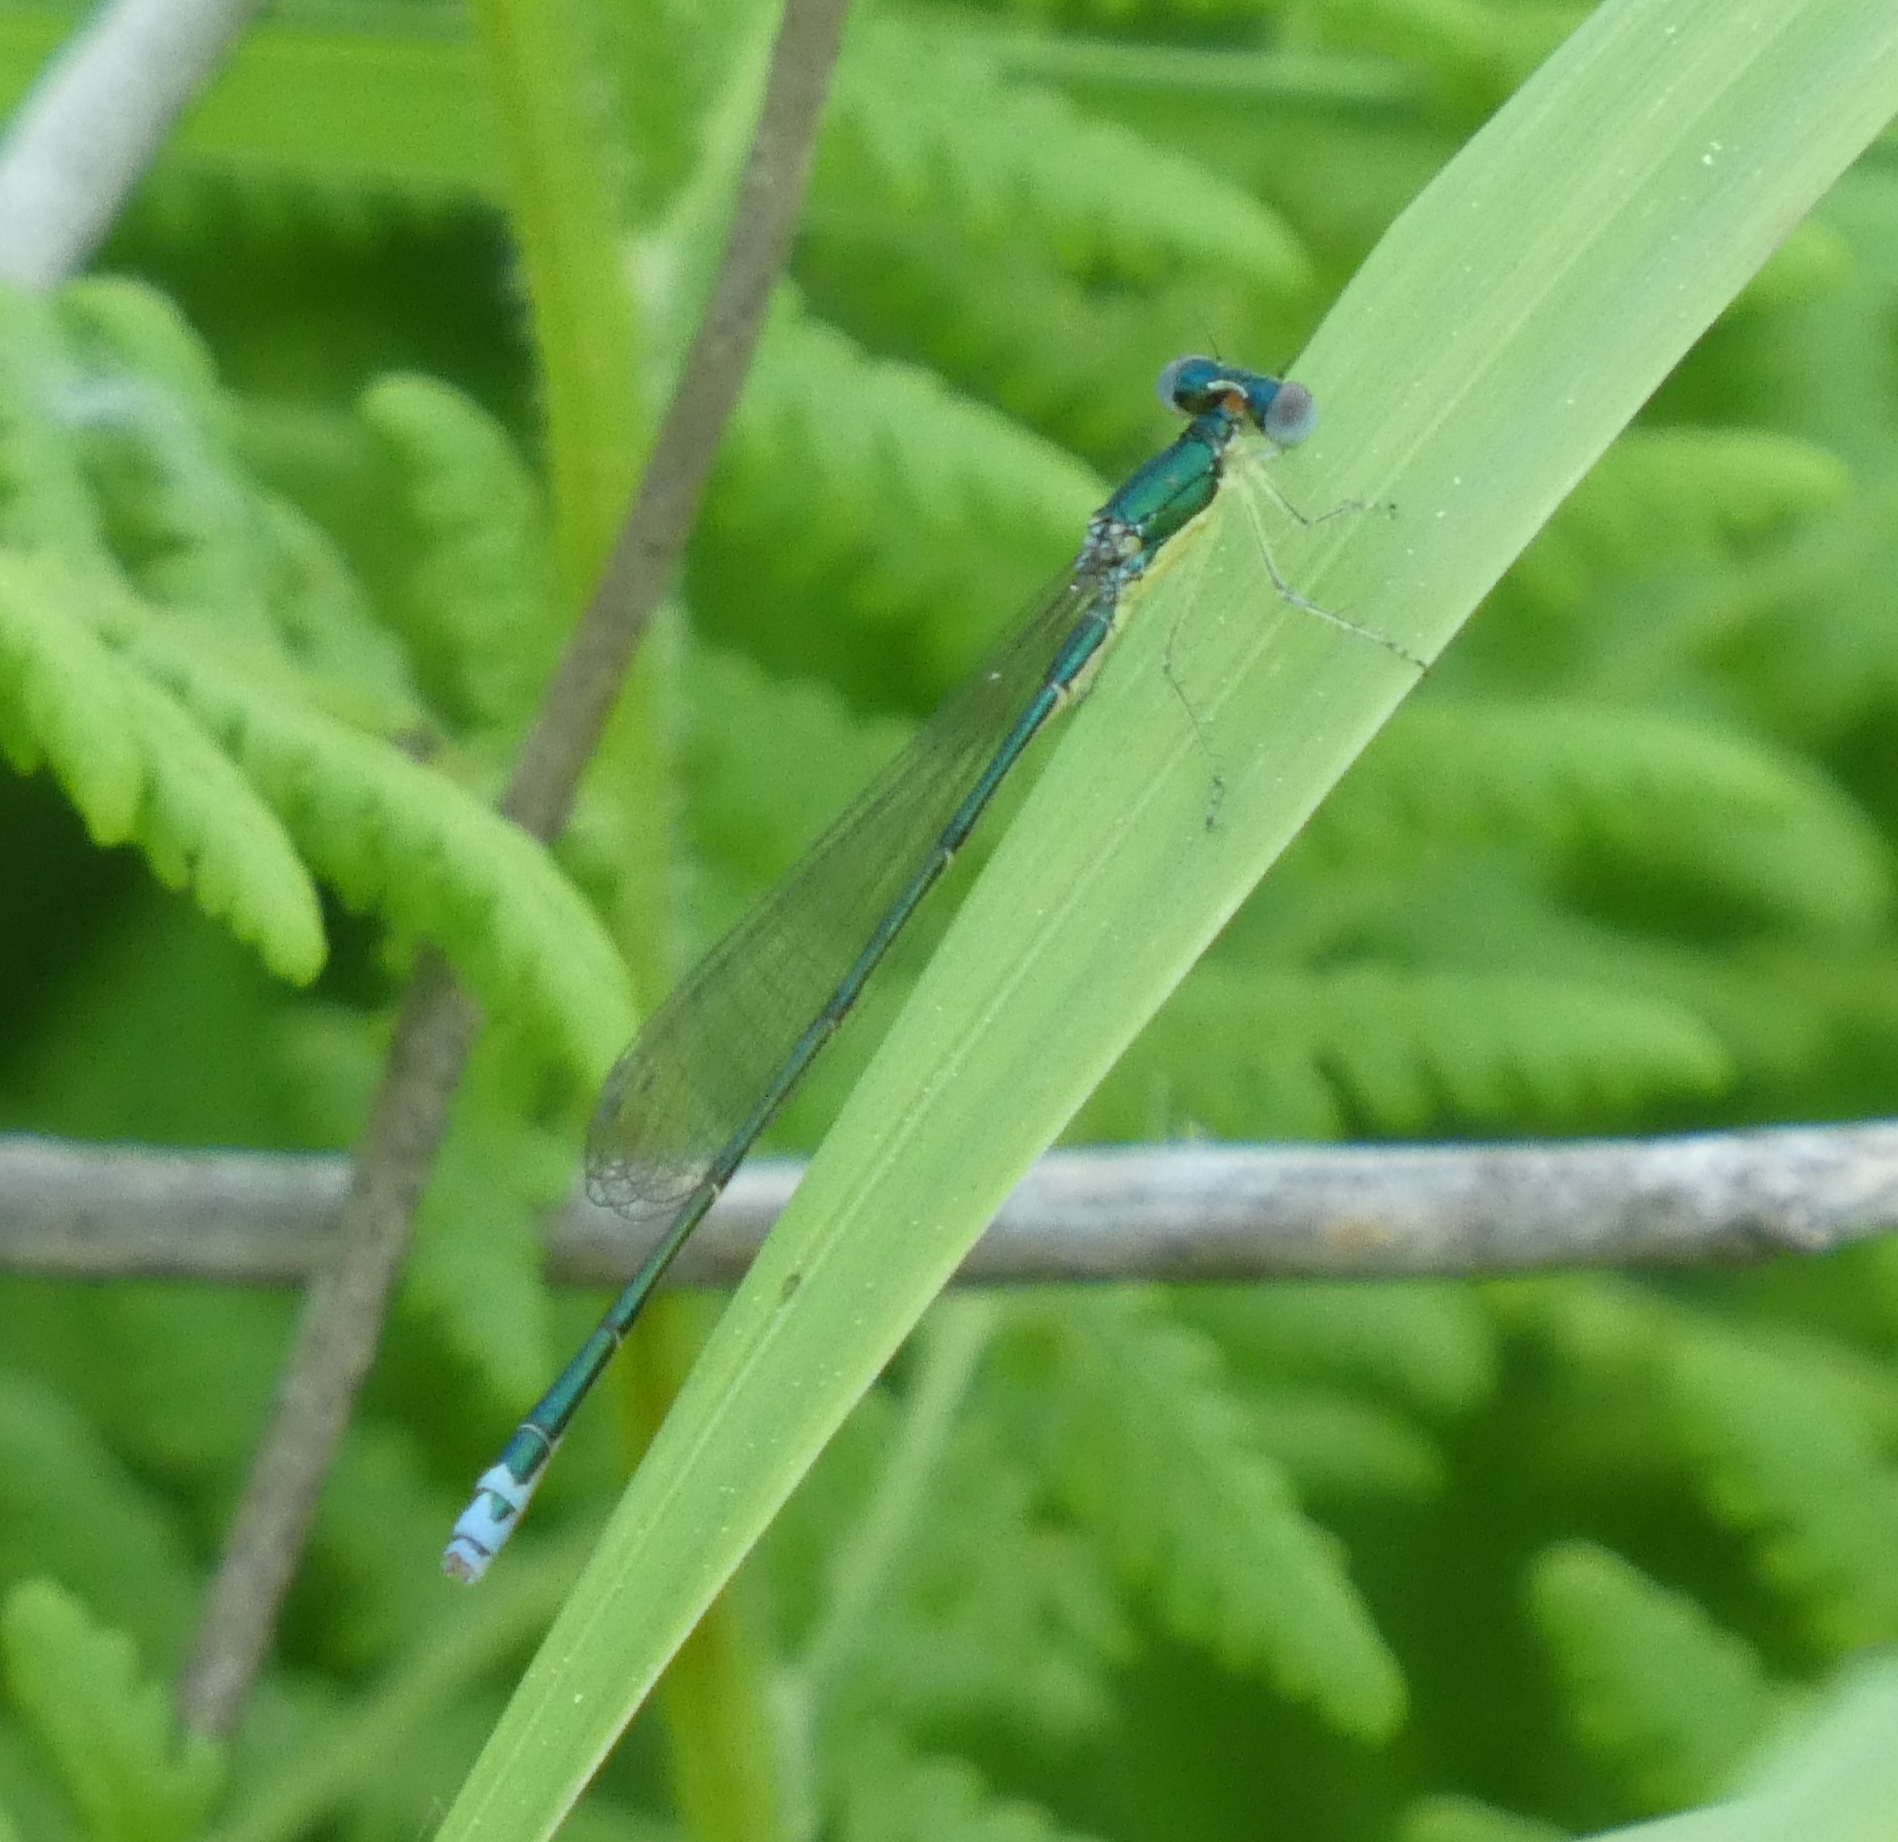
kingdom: Animalia
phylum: Arthropoda
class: Insecta
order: Odonata
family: Coenagrionidae
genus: Nehalennia
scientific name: Nehalennia irene
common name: Sedge sprite
